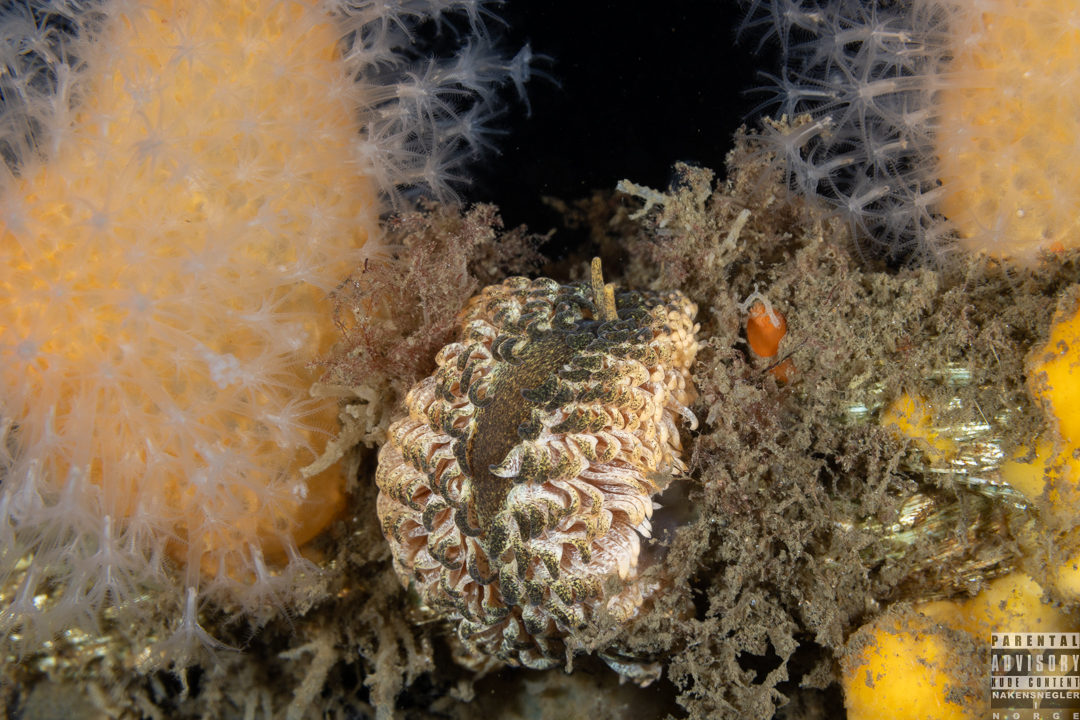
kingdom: Animalia
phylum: Mollusca
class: Gastropoda
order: Nudibranchia
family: Aeolidiidae
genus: Aeolidia
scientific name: Aeolidia papillosa
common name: Common grey sea slug
